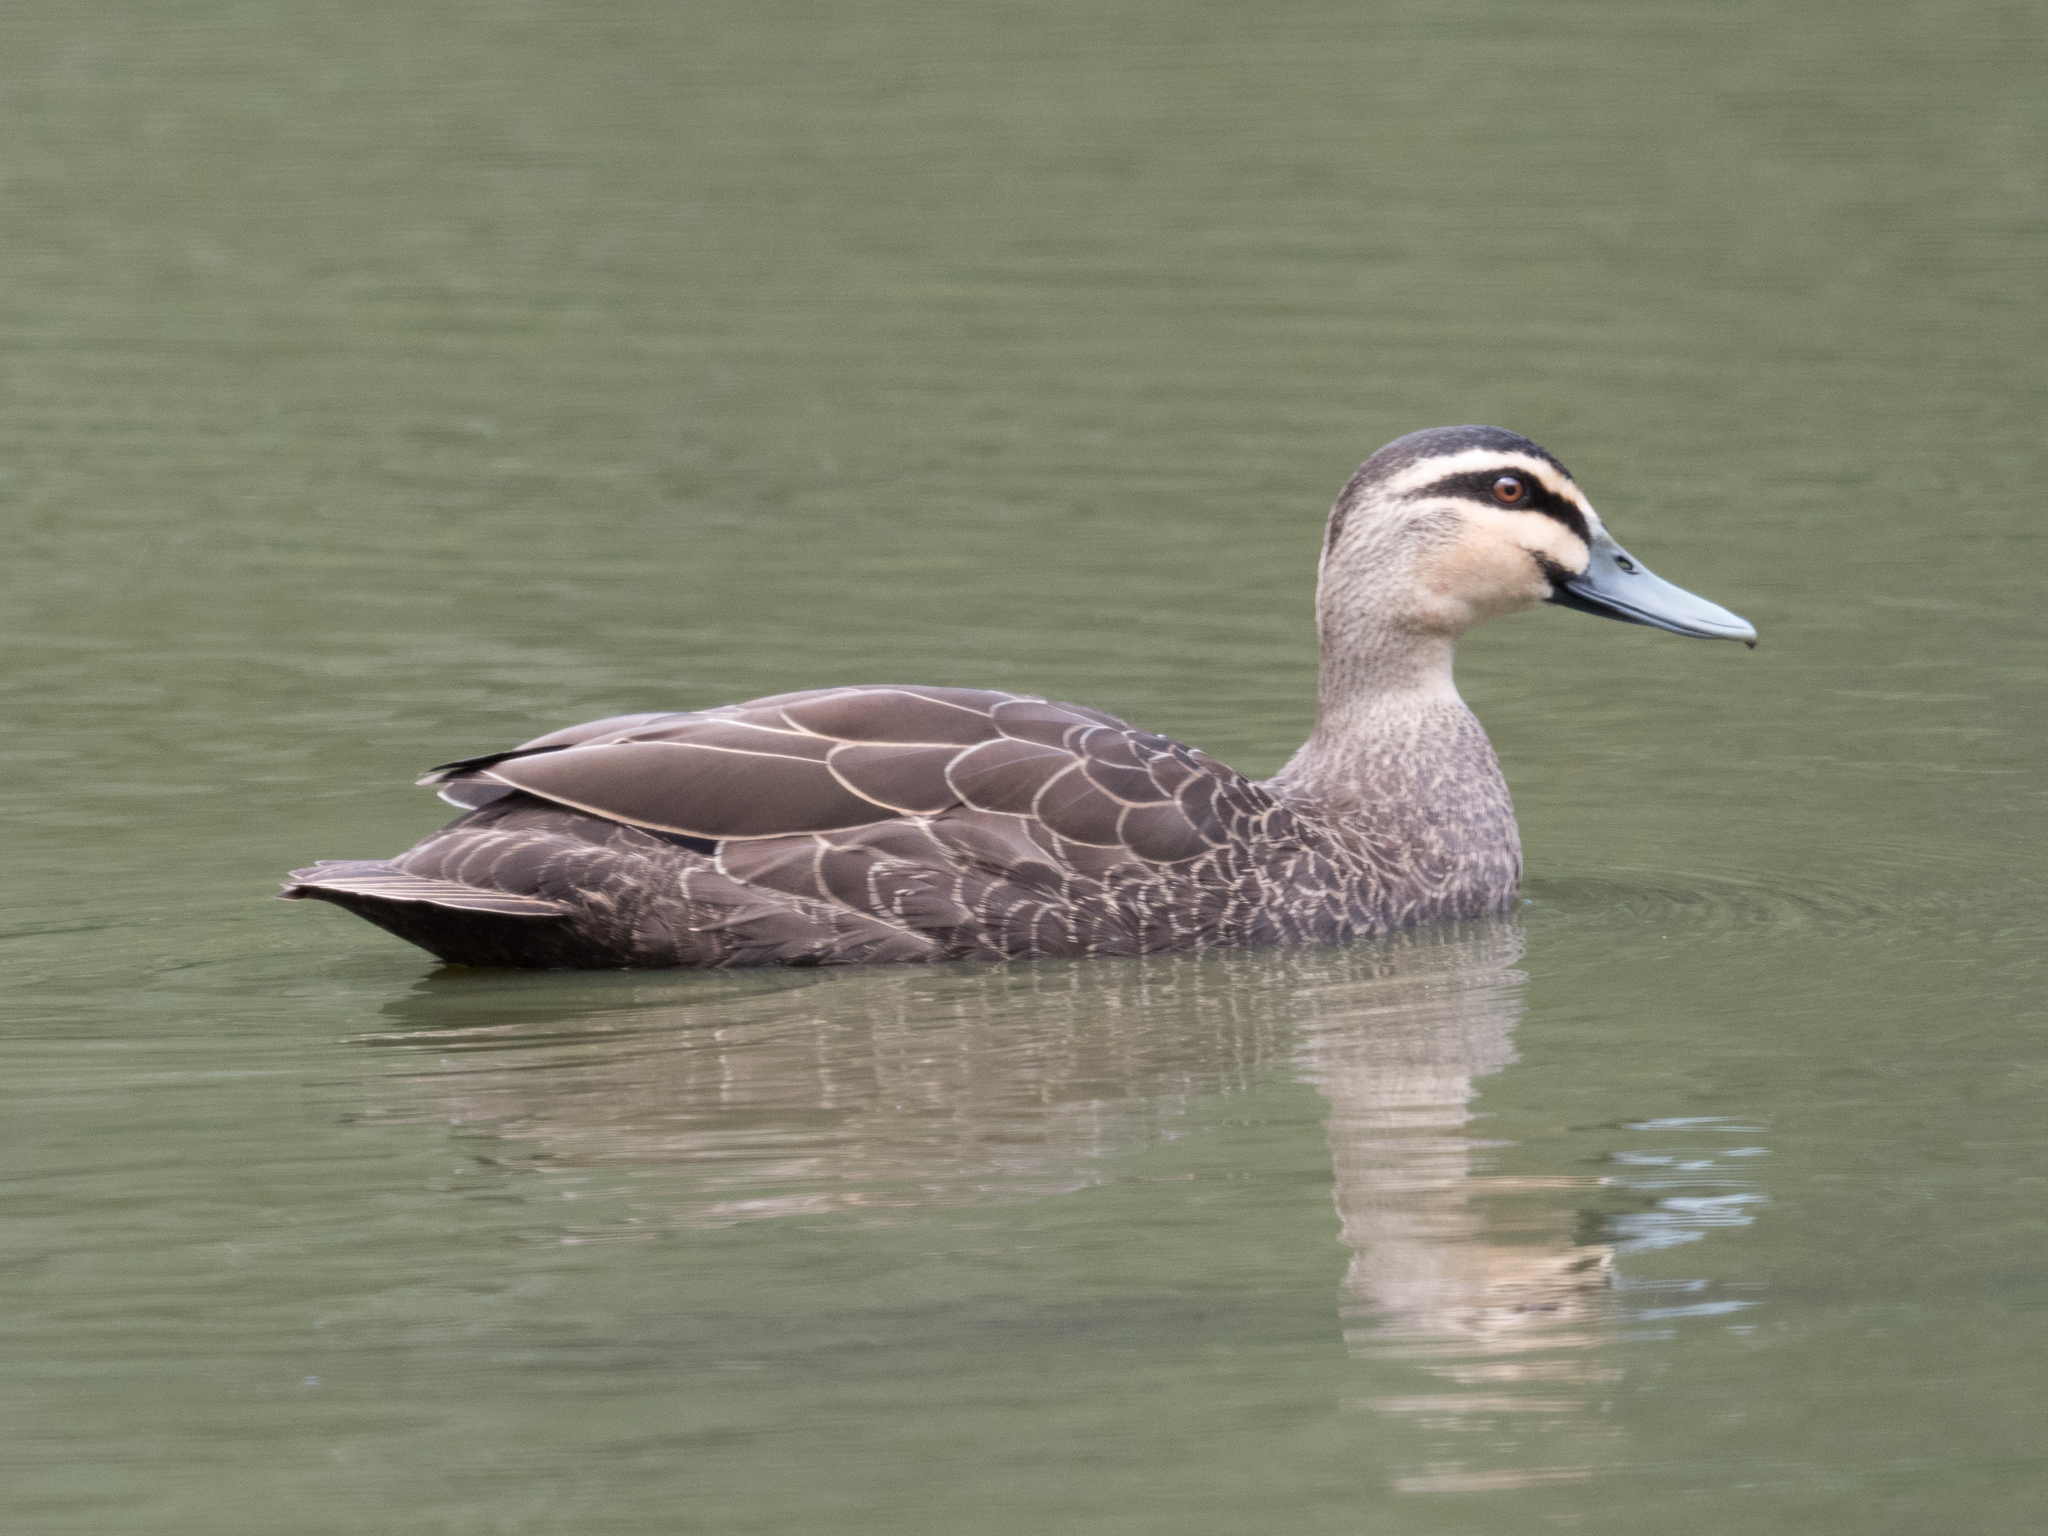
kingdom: Animalia
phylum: Chordata
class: Aves
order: Anseriformes
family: Anatidae
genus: Anas
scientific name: Anas superciliosa
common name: Pacific black duck
